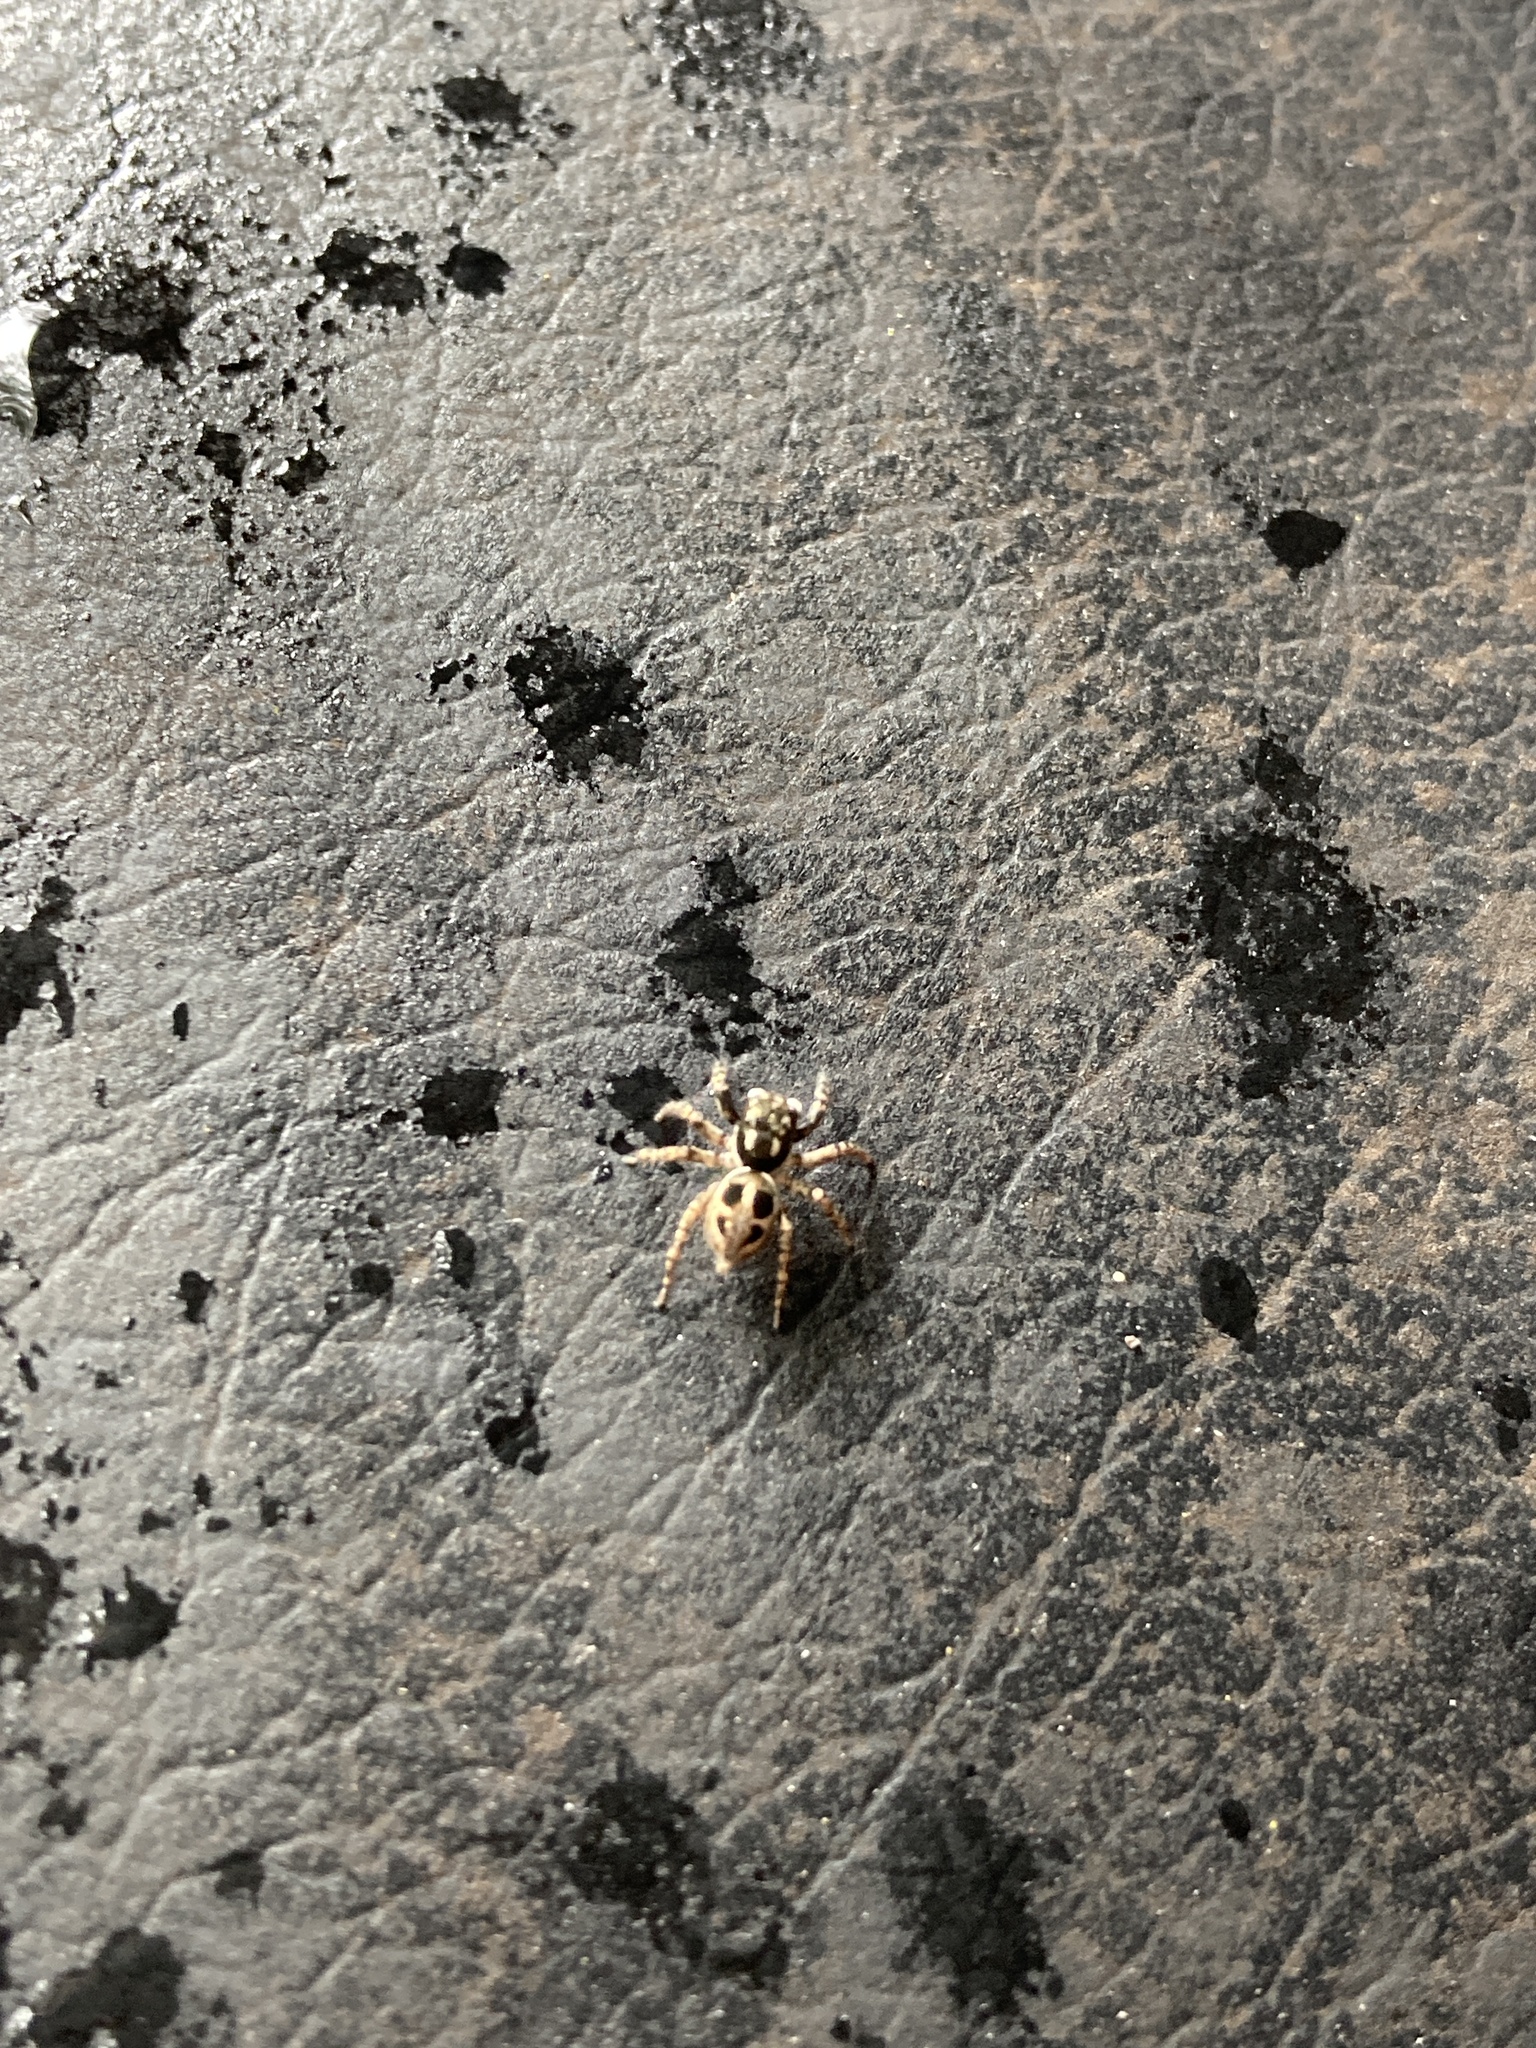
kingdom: Animalia
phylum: Arthropoda
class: Arachnida
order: Araneae
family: Salticidae
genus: Anasaitis
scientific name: Anasaitis canosa
